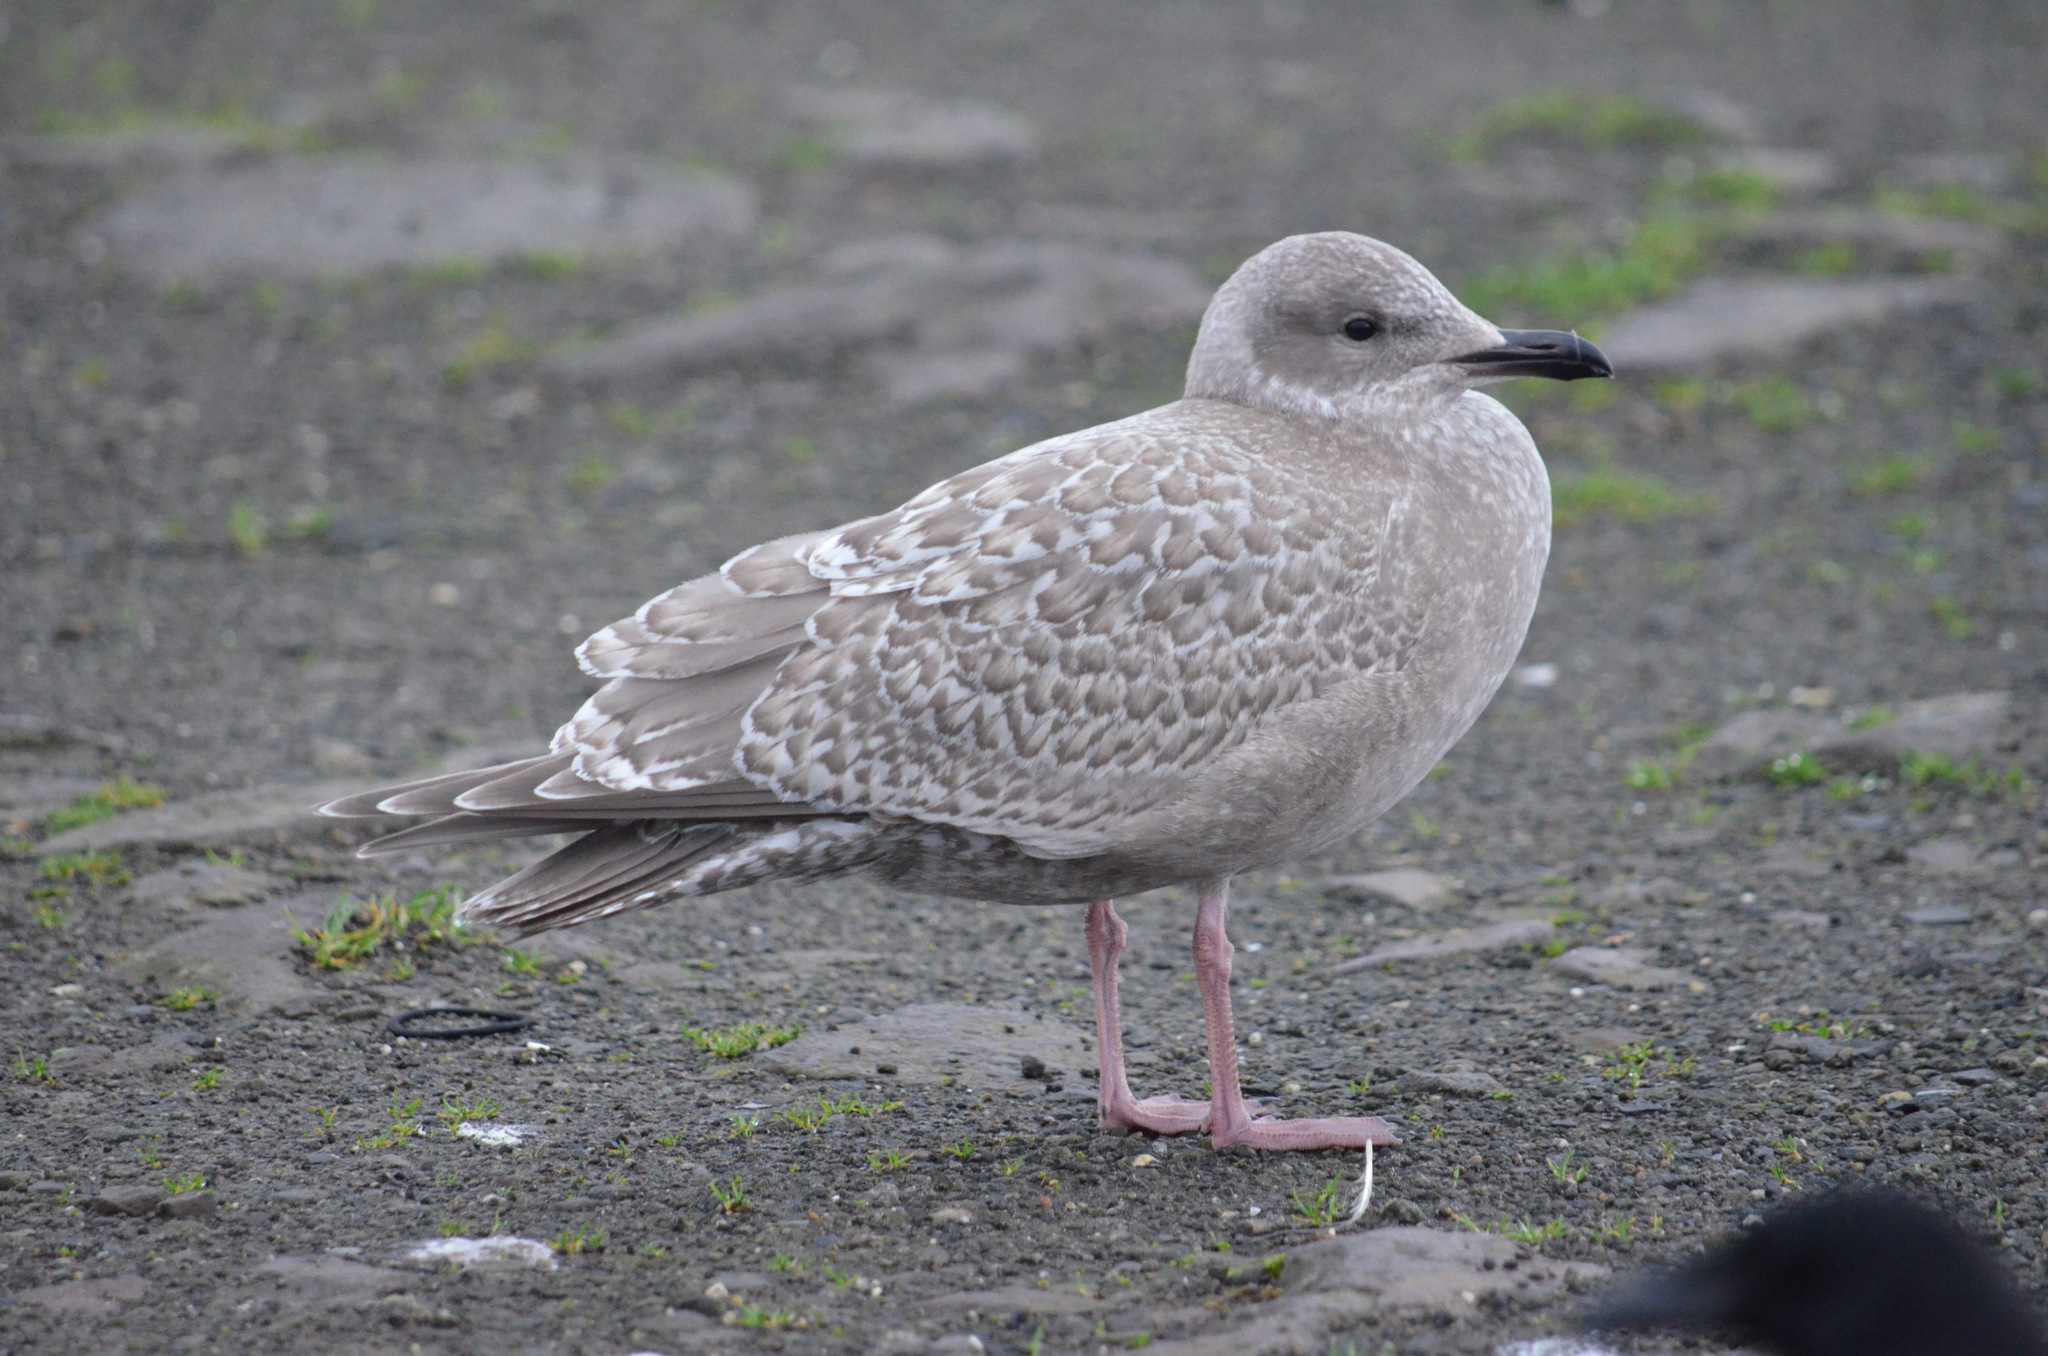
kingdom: Animalia
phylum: Chordata
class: Aves
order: Charadriiformes
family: Laridae
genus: Larus
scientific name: Larus glaucoides
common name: Iceland gull
